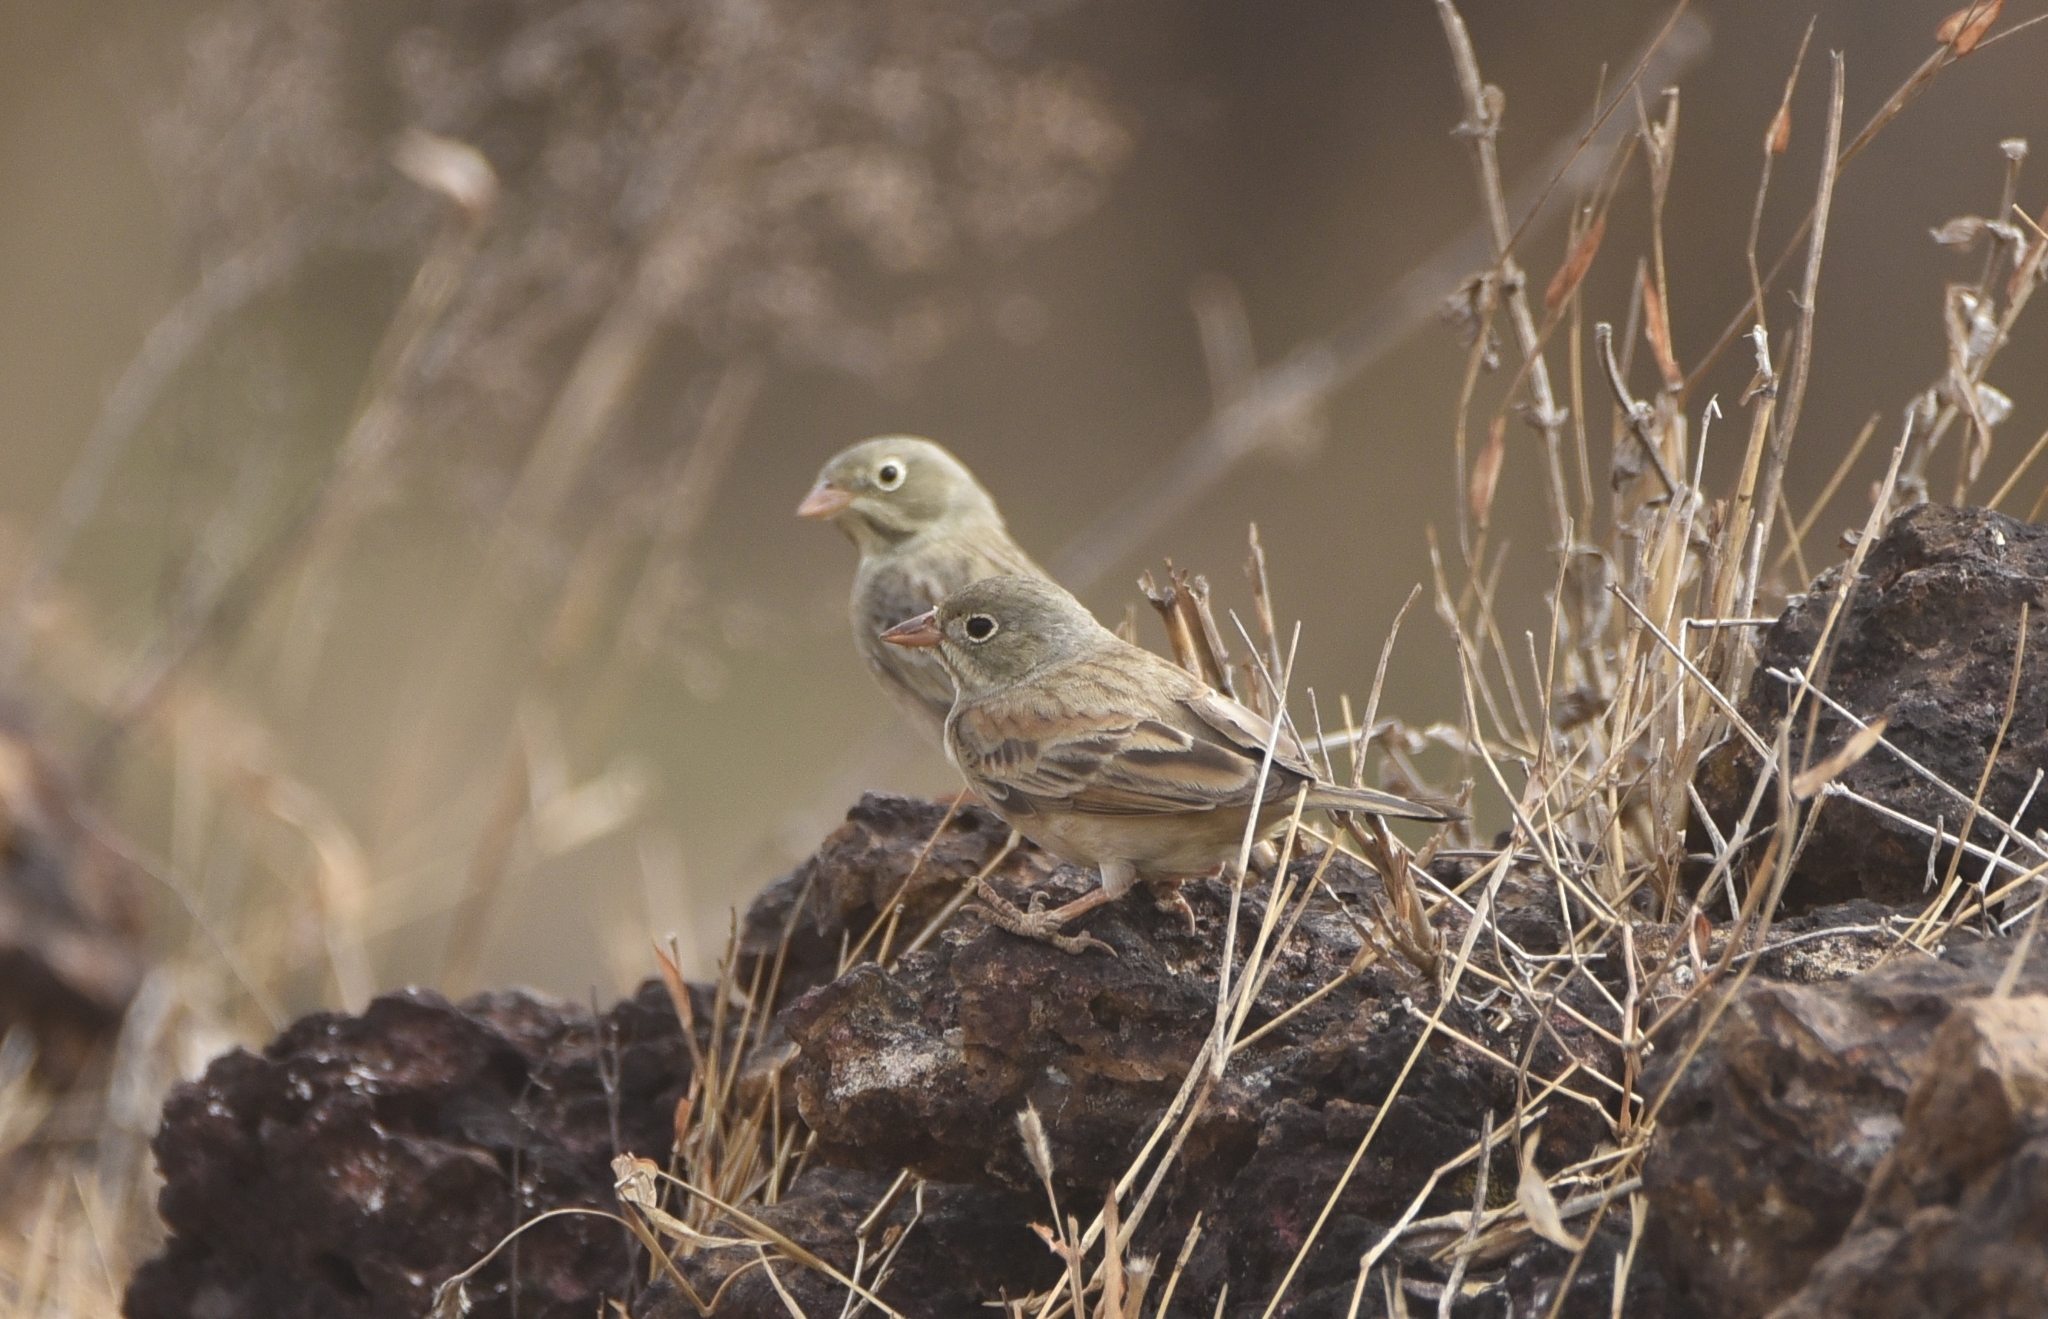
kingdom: Animalia
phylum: Chordata
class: Aves
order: Passeriformes
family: Emberizidae
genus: Emberiza
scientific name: Emberiza buchanani
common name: Grey-necked bunting
